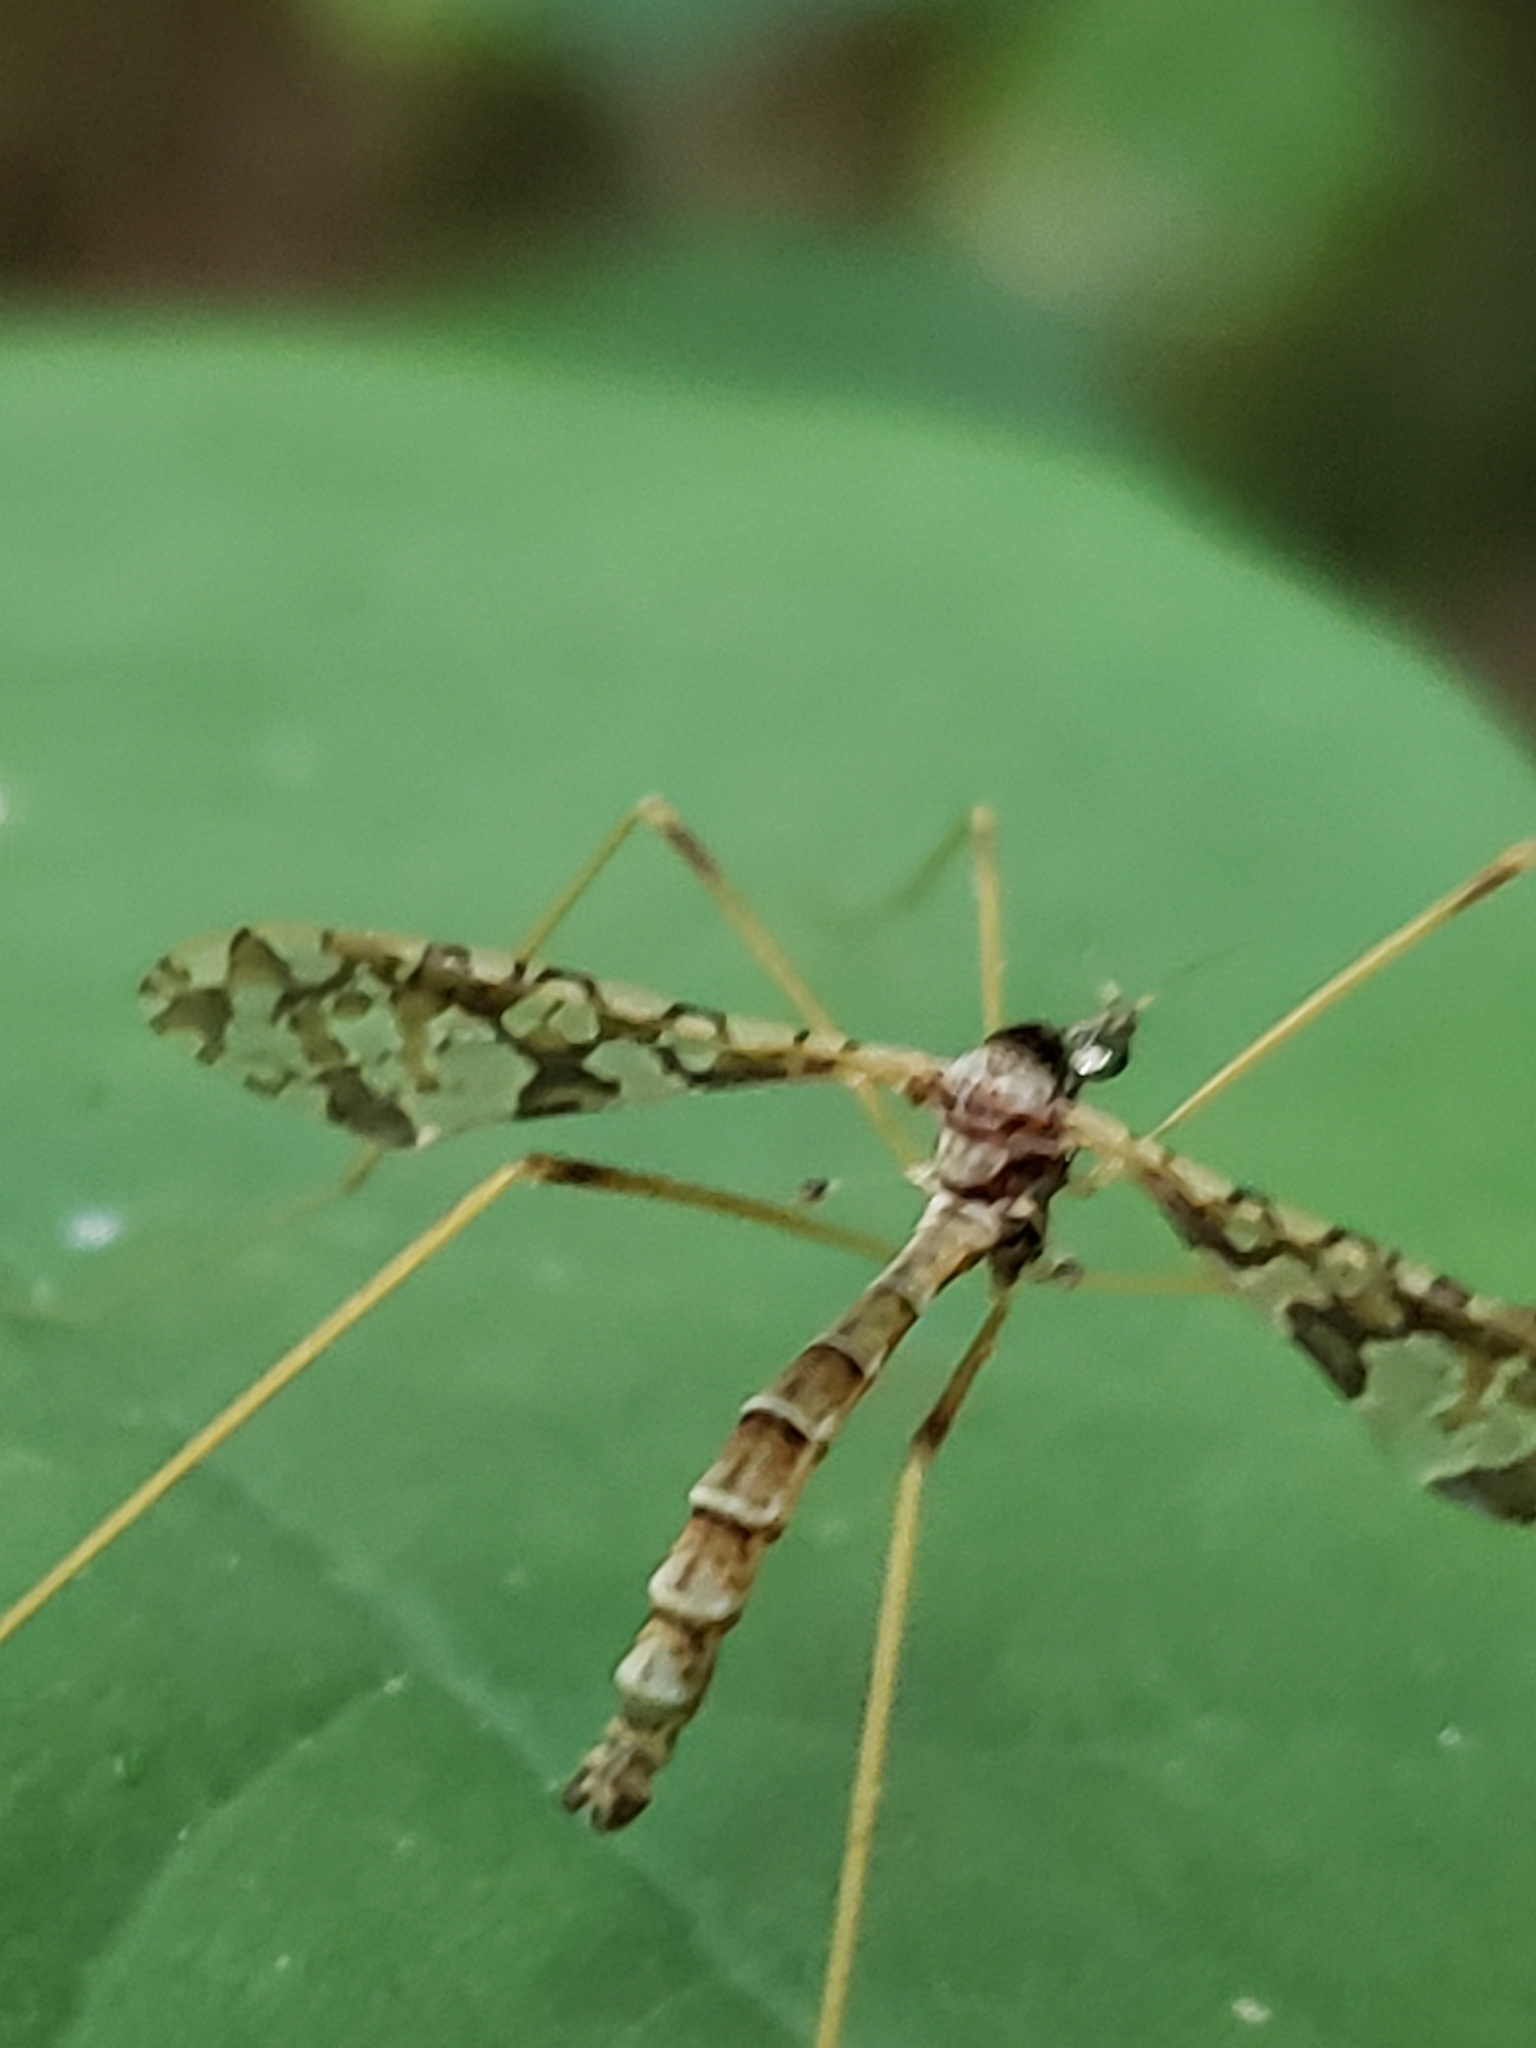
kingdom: Animalia
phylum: Arthropoda
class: Insecta
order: Diptera
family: Limoniidae
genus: Epiphragma
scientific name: Epiphragma solatrix
